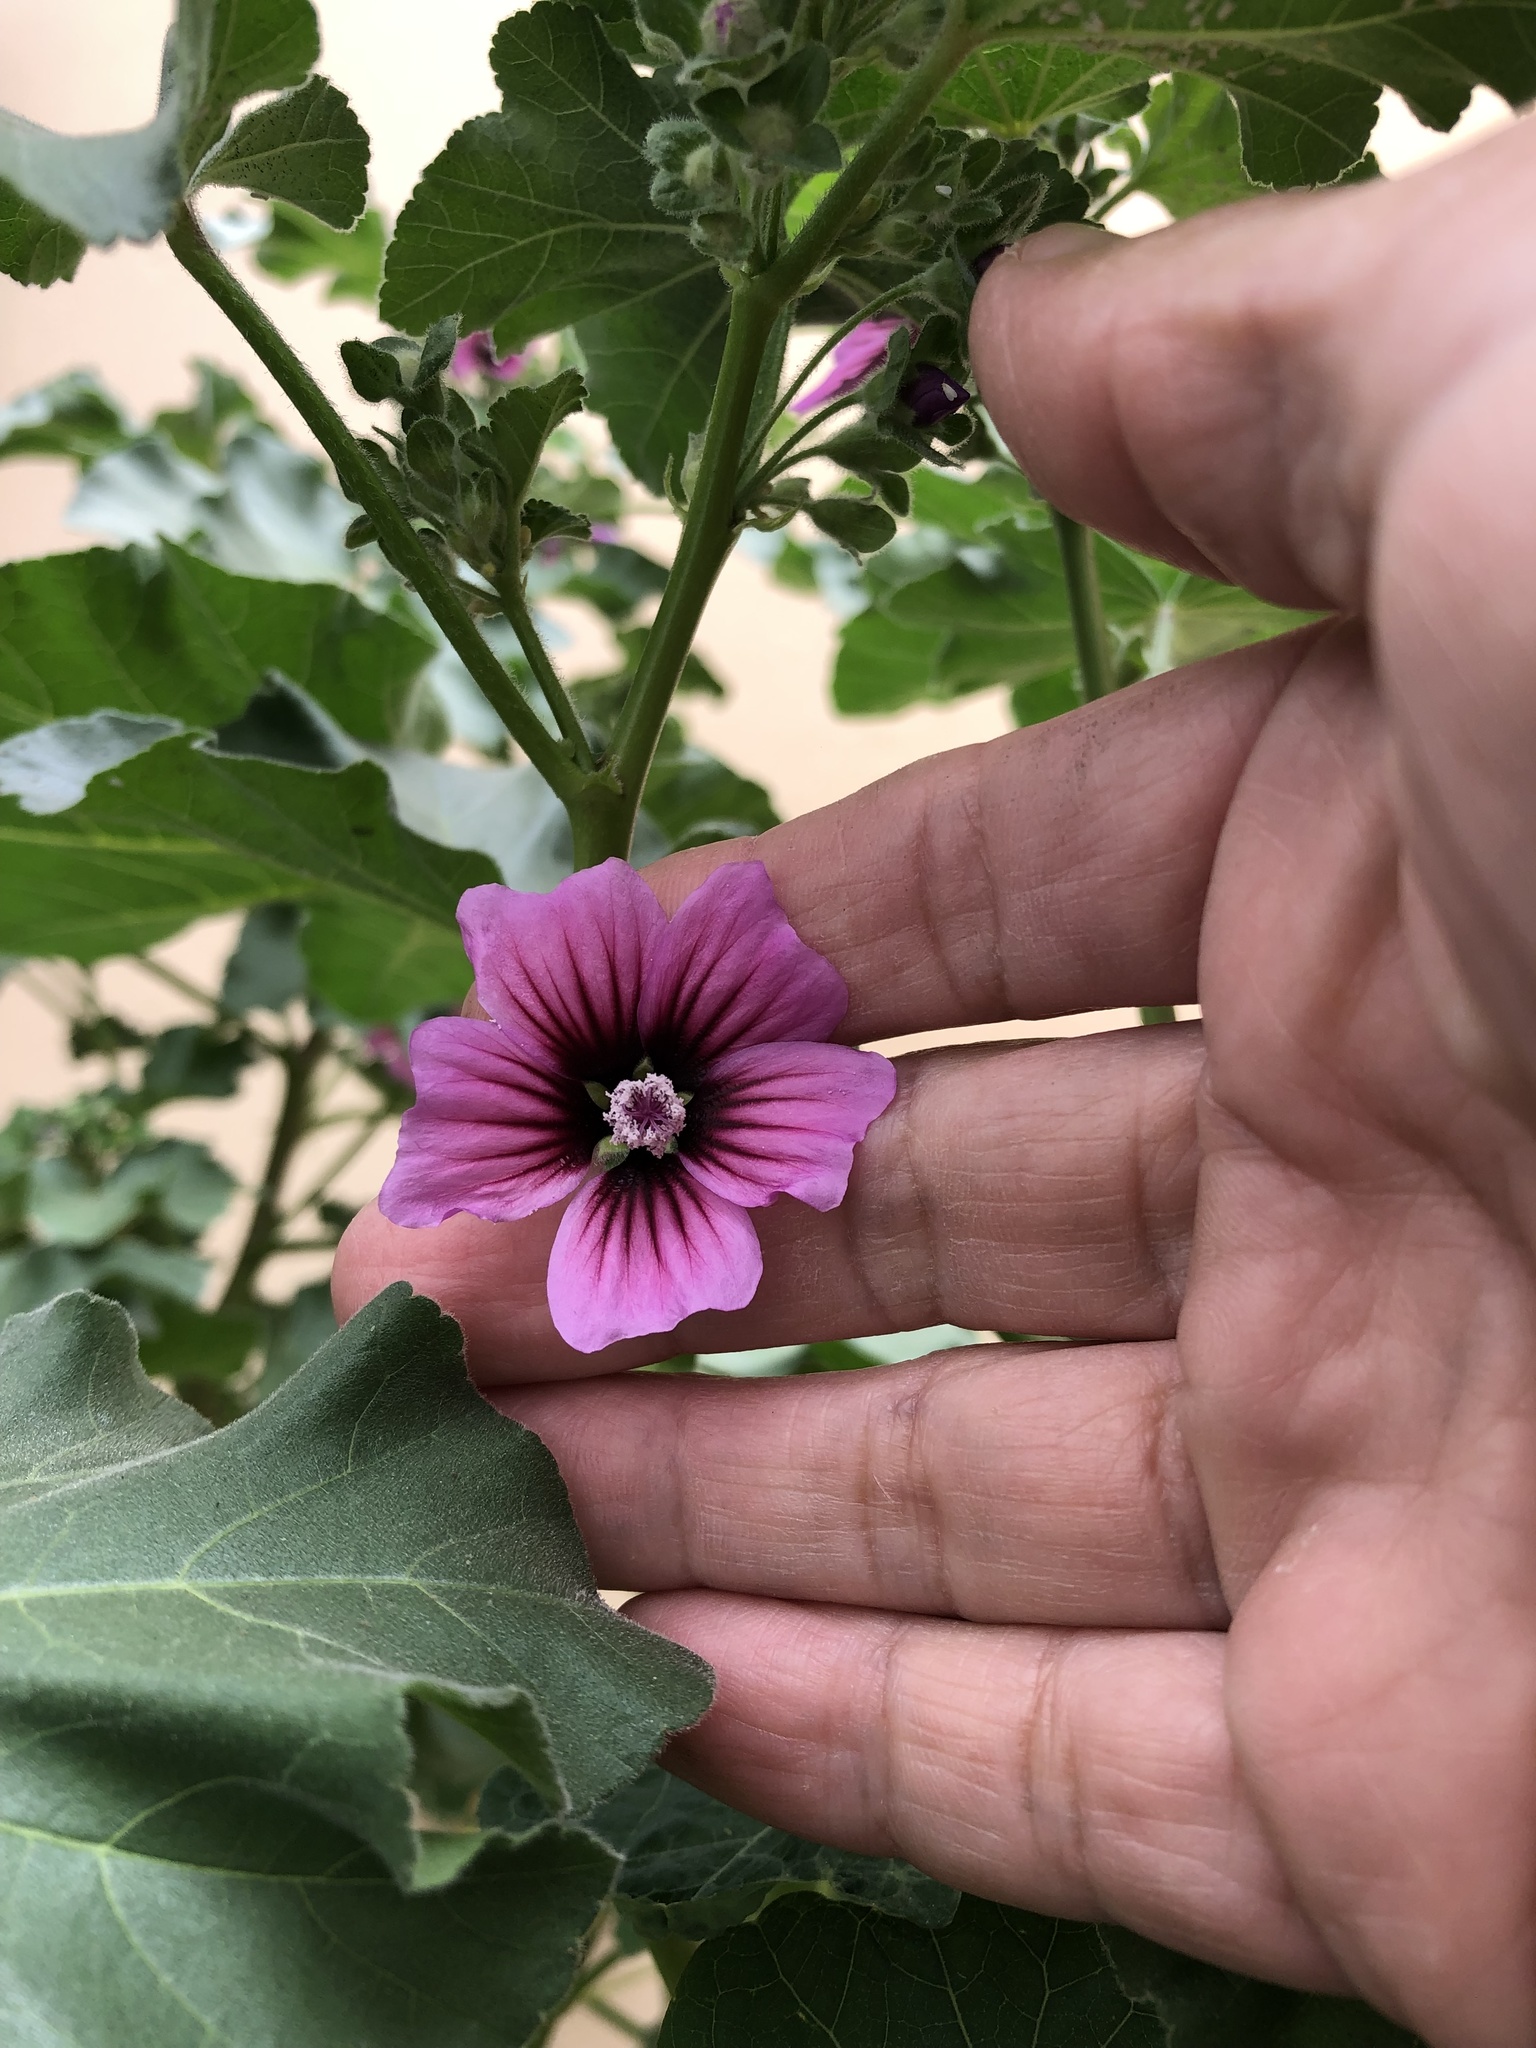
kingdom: Plantae
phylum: Tracheophyta
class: Magnoliopsida
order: Malvales
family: Malvaceae
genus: Malva
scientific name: Malva arborea
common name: Tree mallow
